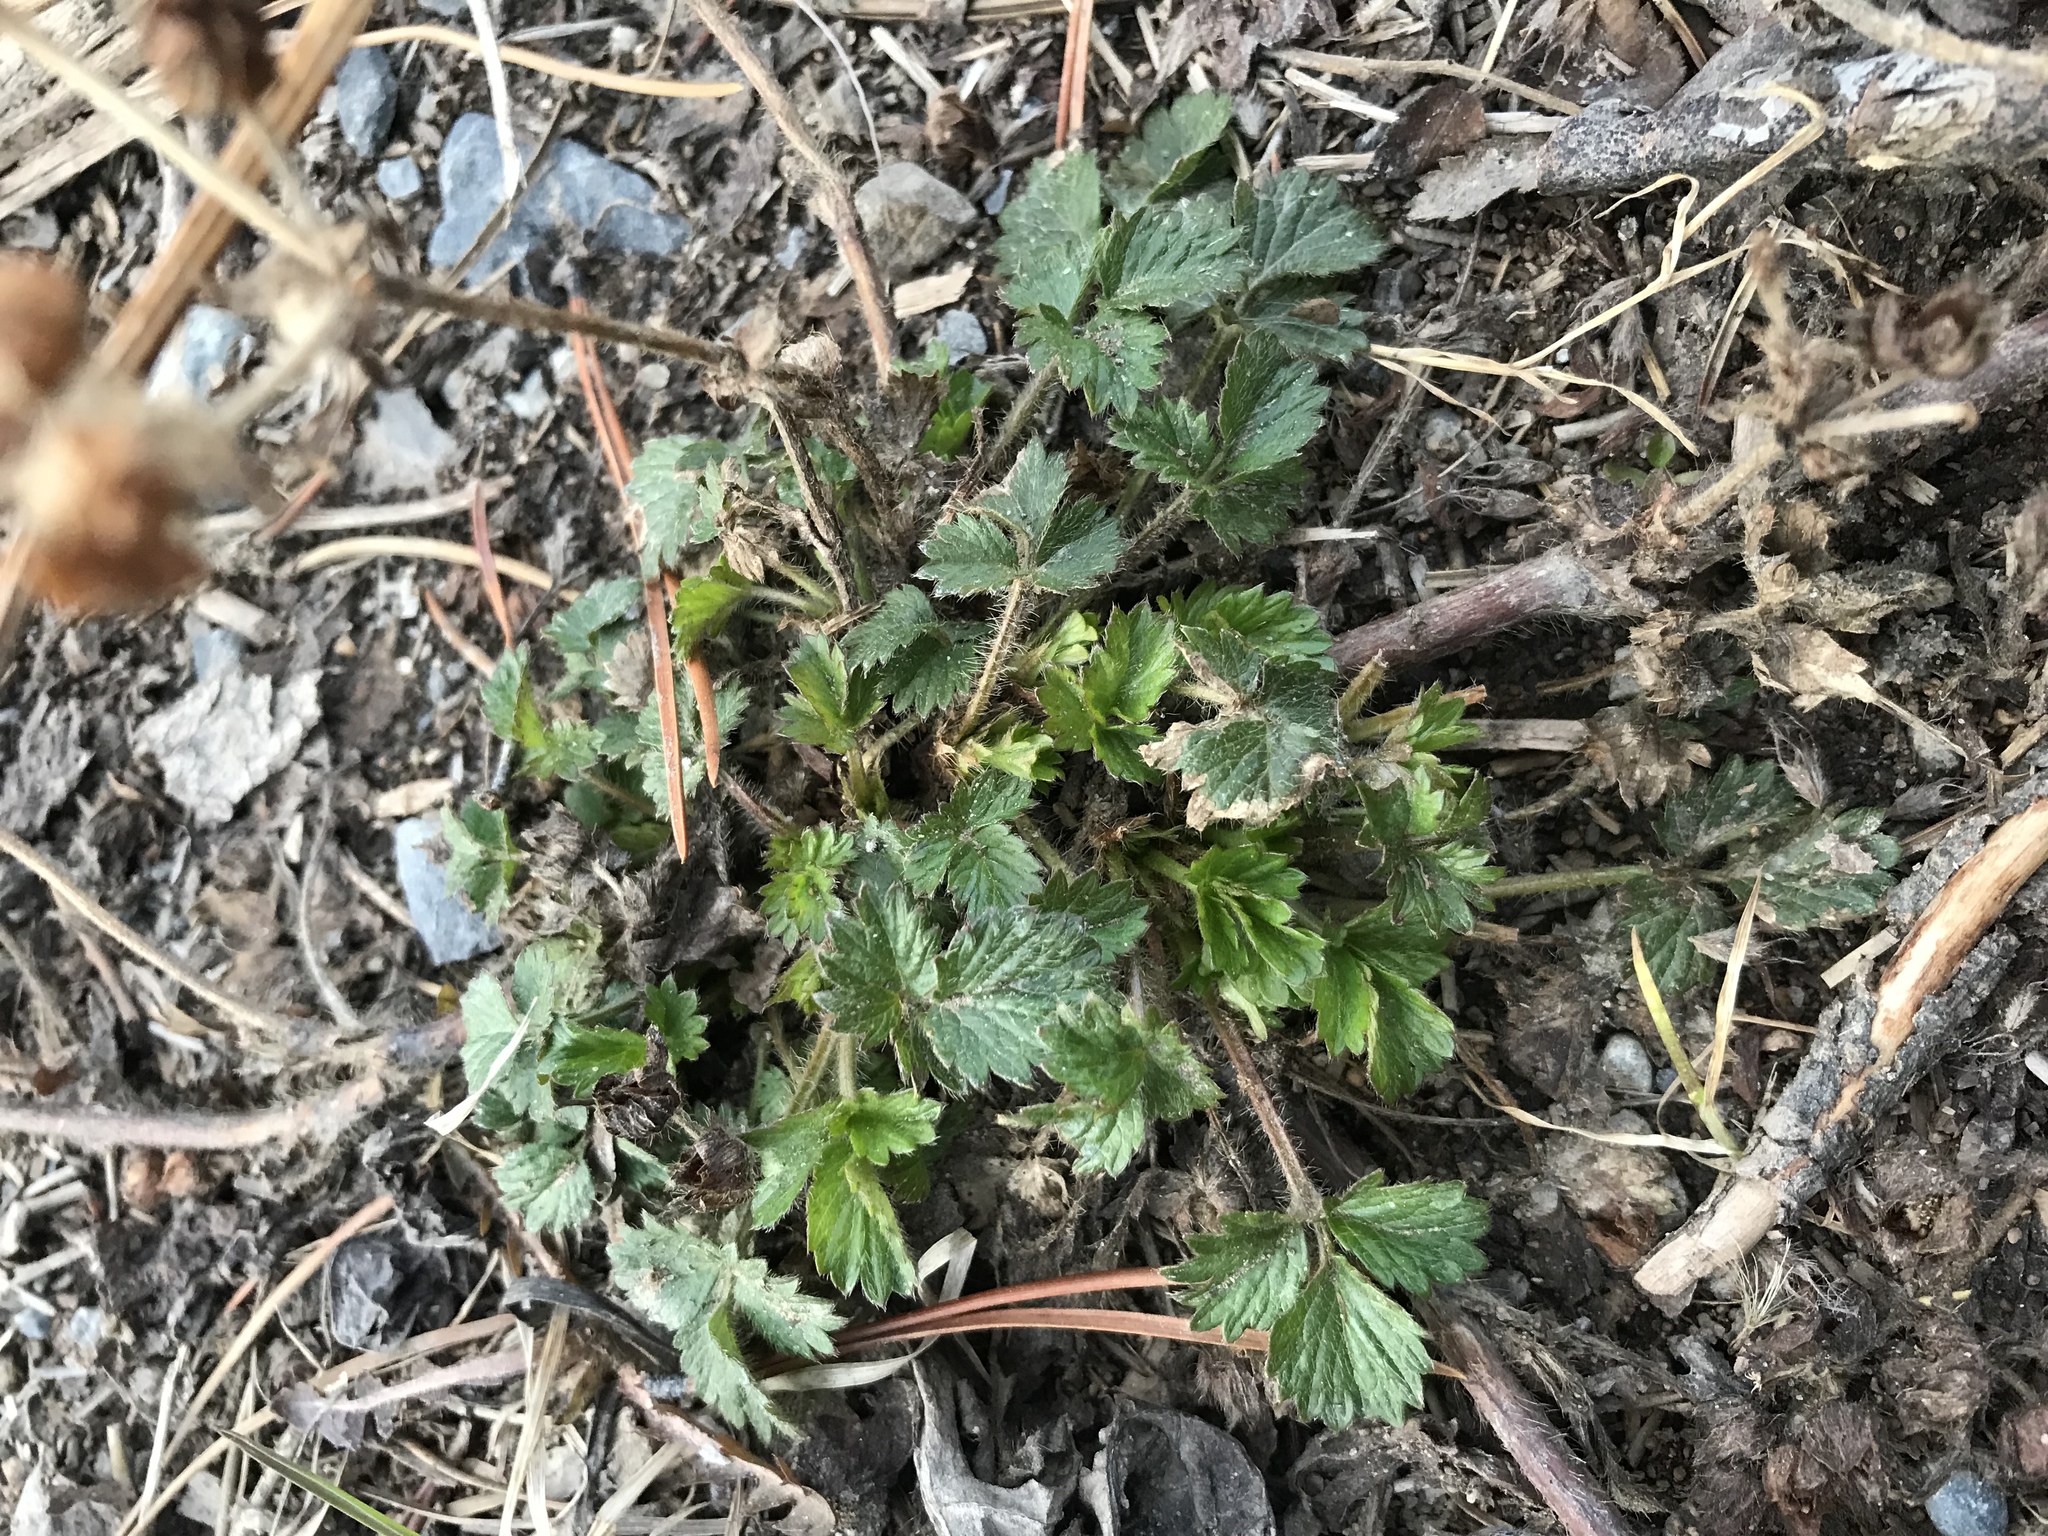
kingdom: Plantae
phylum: Tracheophyta
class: Magnoliopsida
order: Rosales
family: Rosaceae
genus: Potentilla
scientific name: Potentilla norvegica
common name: Ternate-leaved cinquefoil
